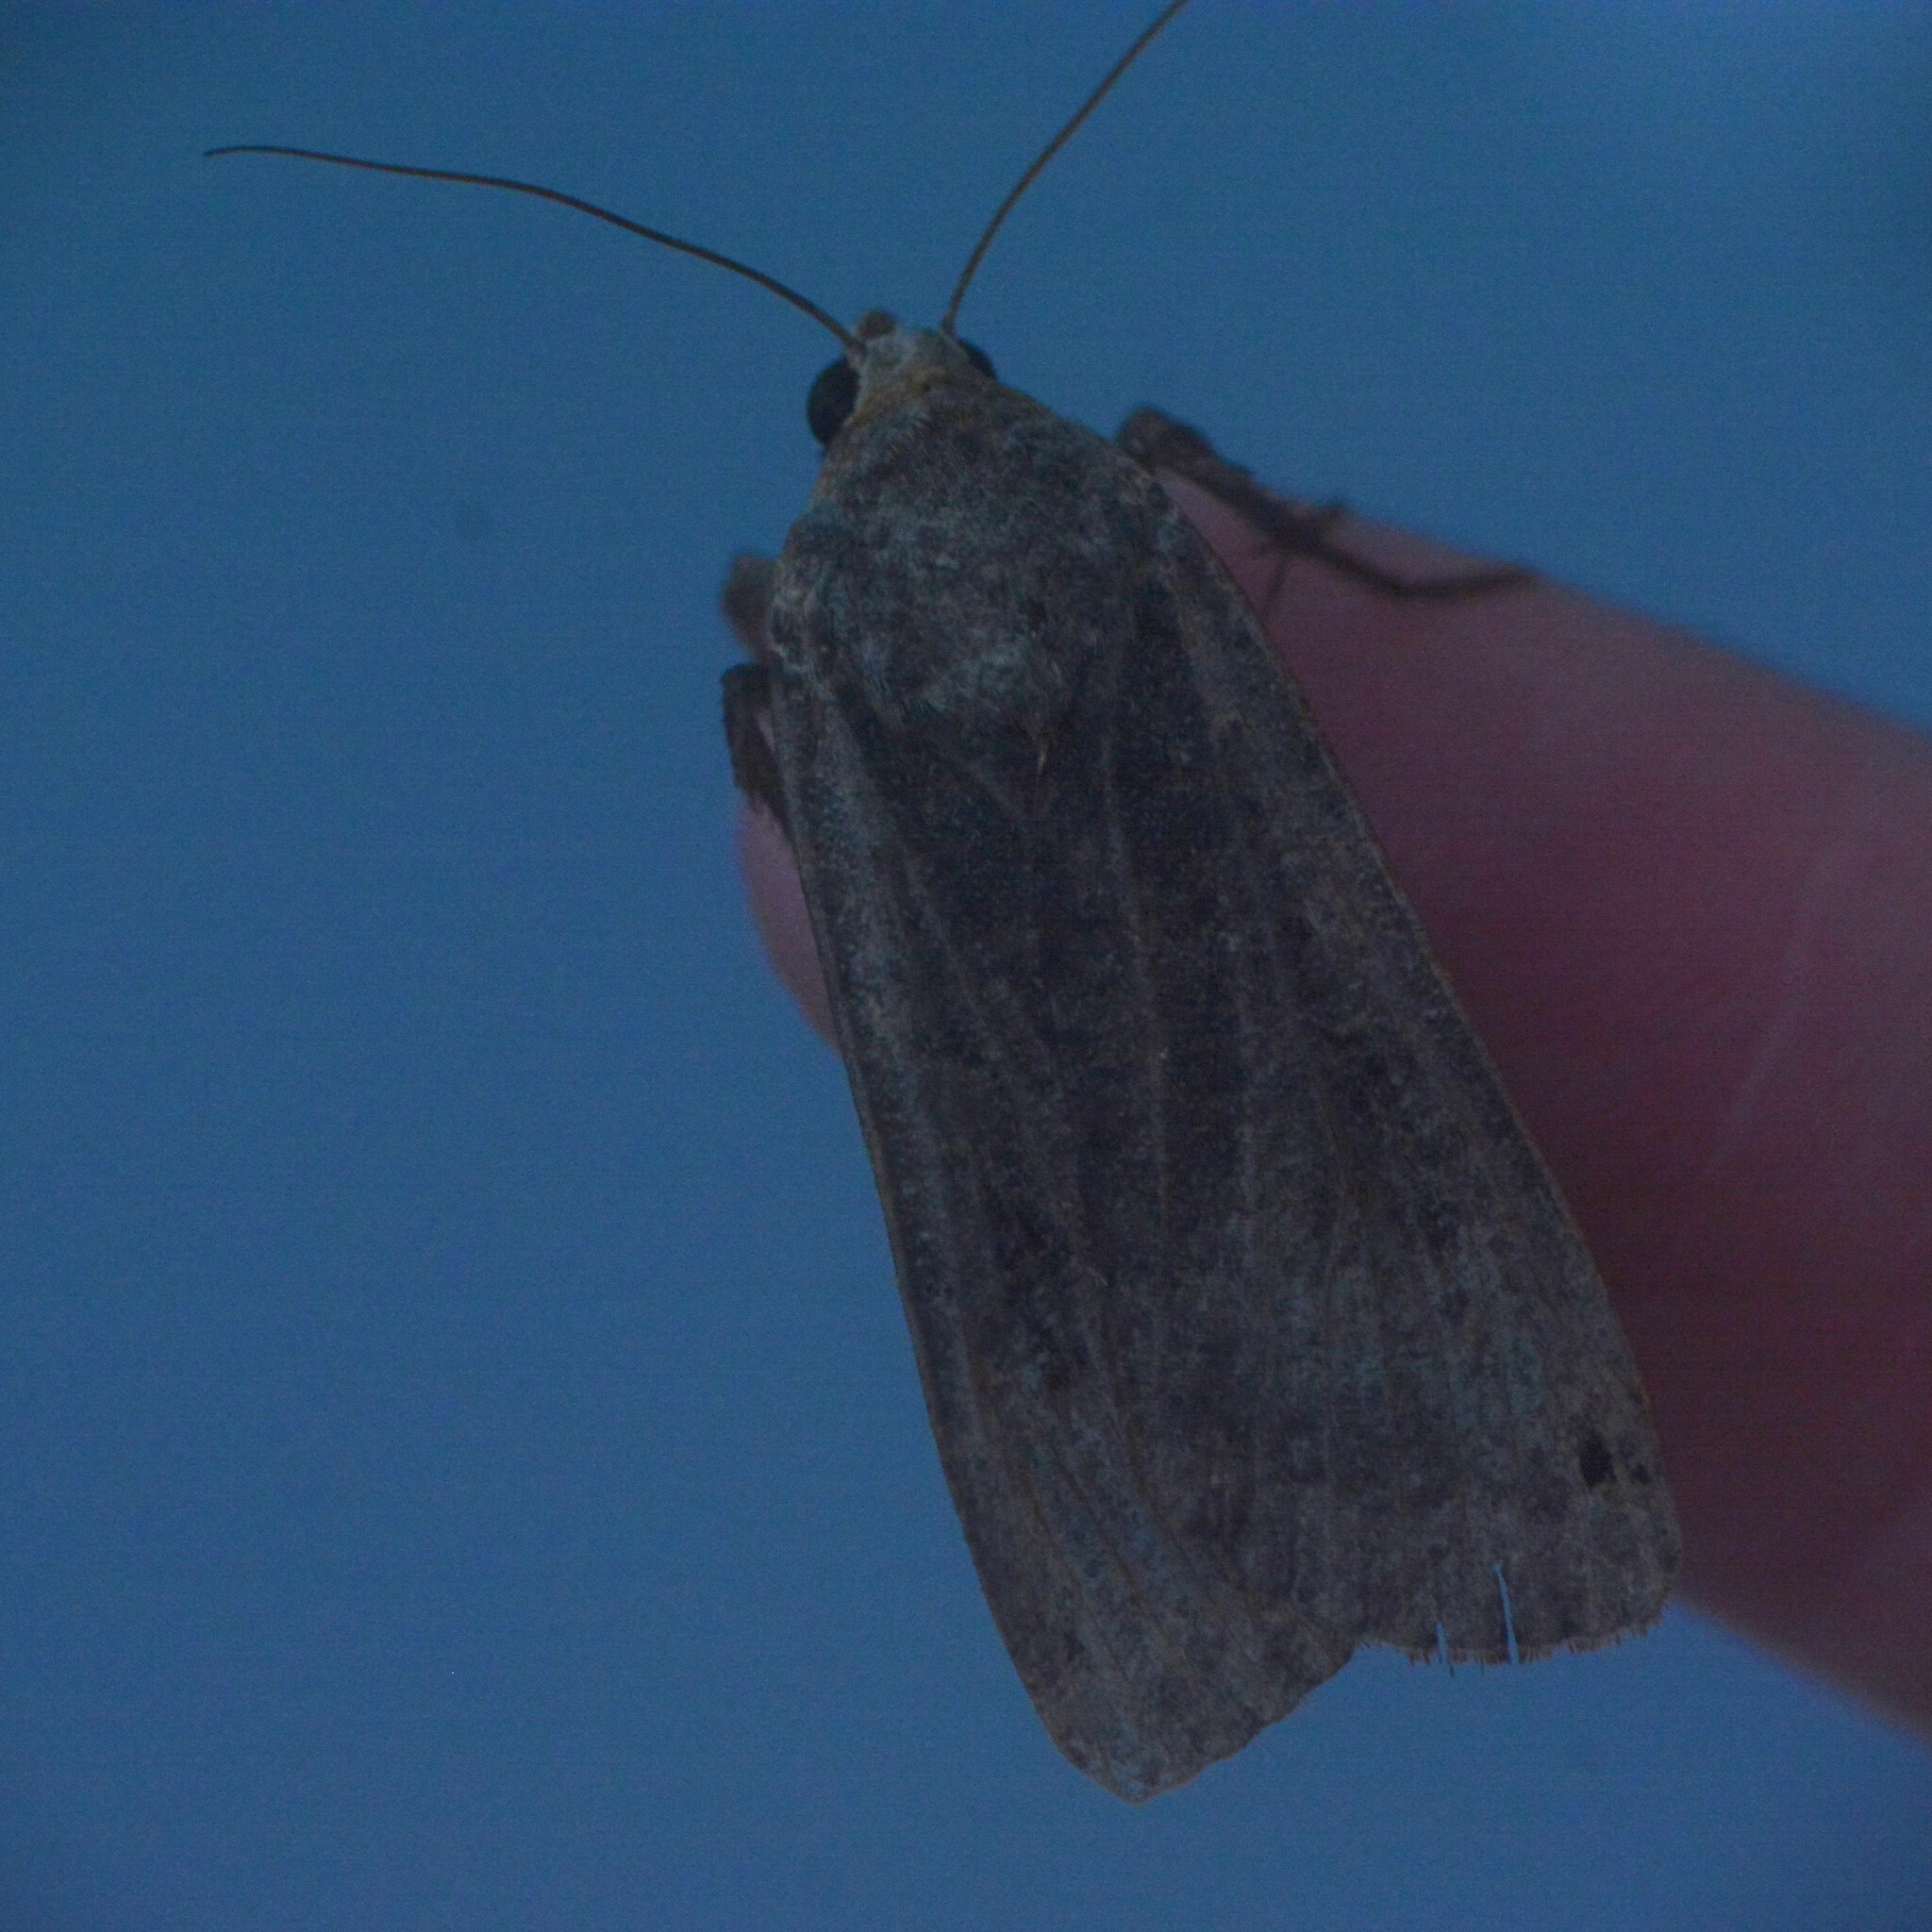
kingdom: Animalia
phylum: Arthropoda
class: Insecta
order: Lepidoptera
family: Noctuidae
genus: Noctua
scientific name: Noctua pronuba
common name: Large yellow underwing
